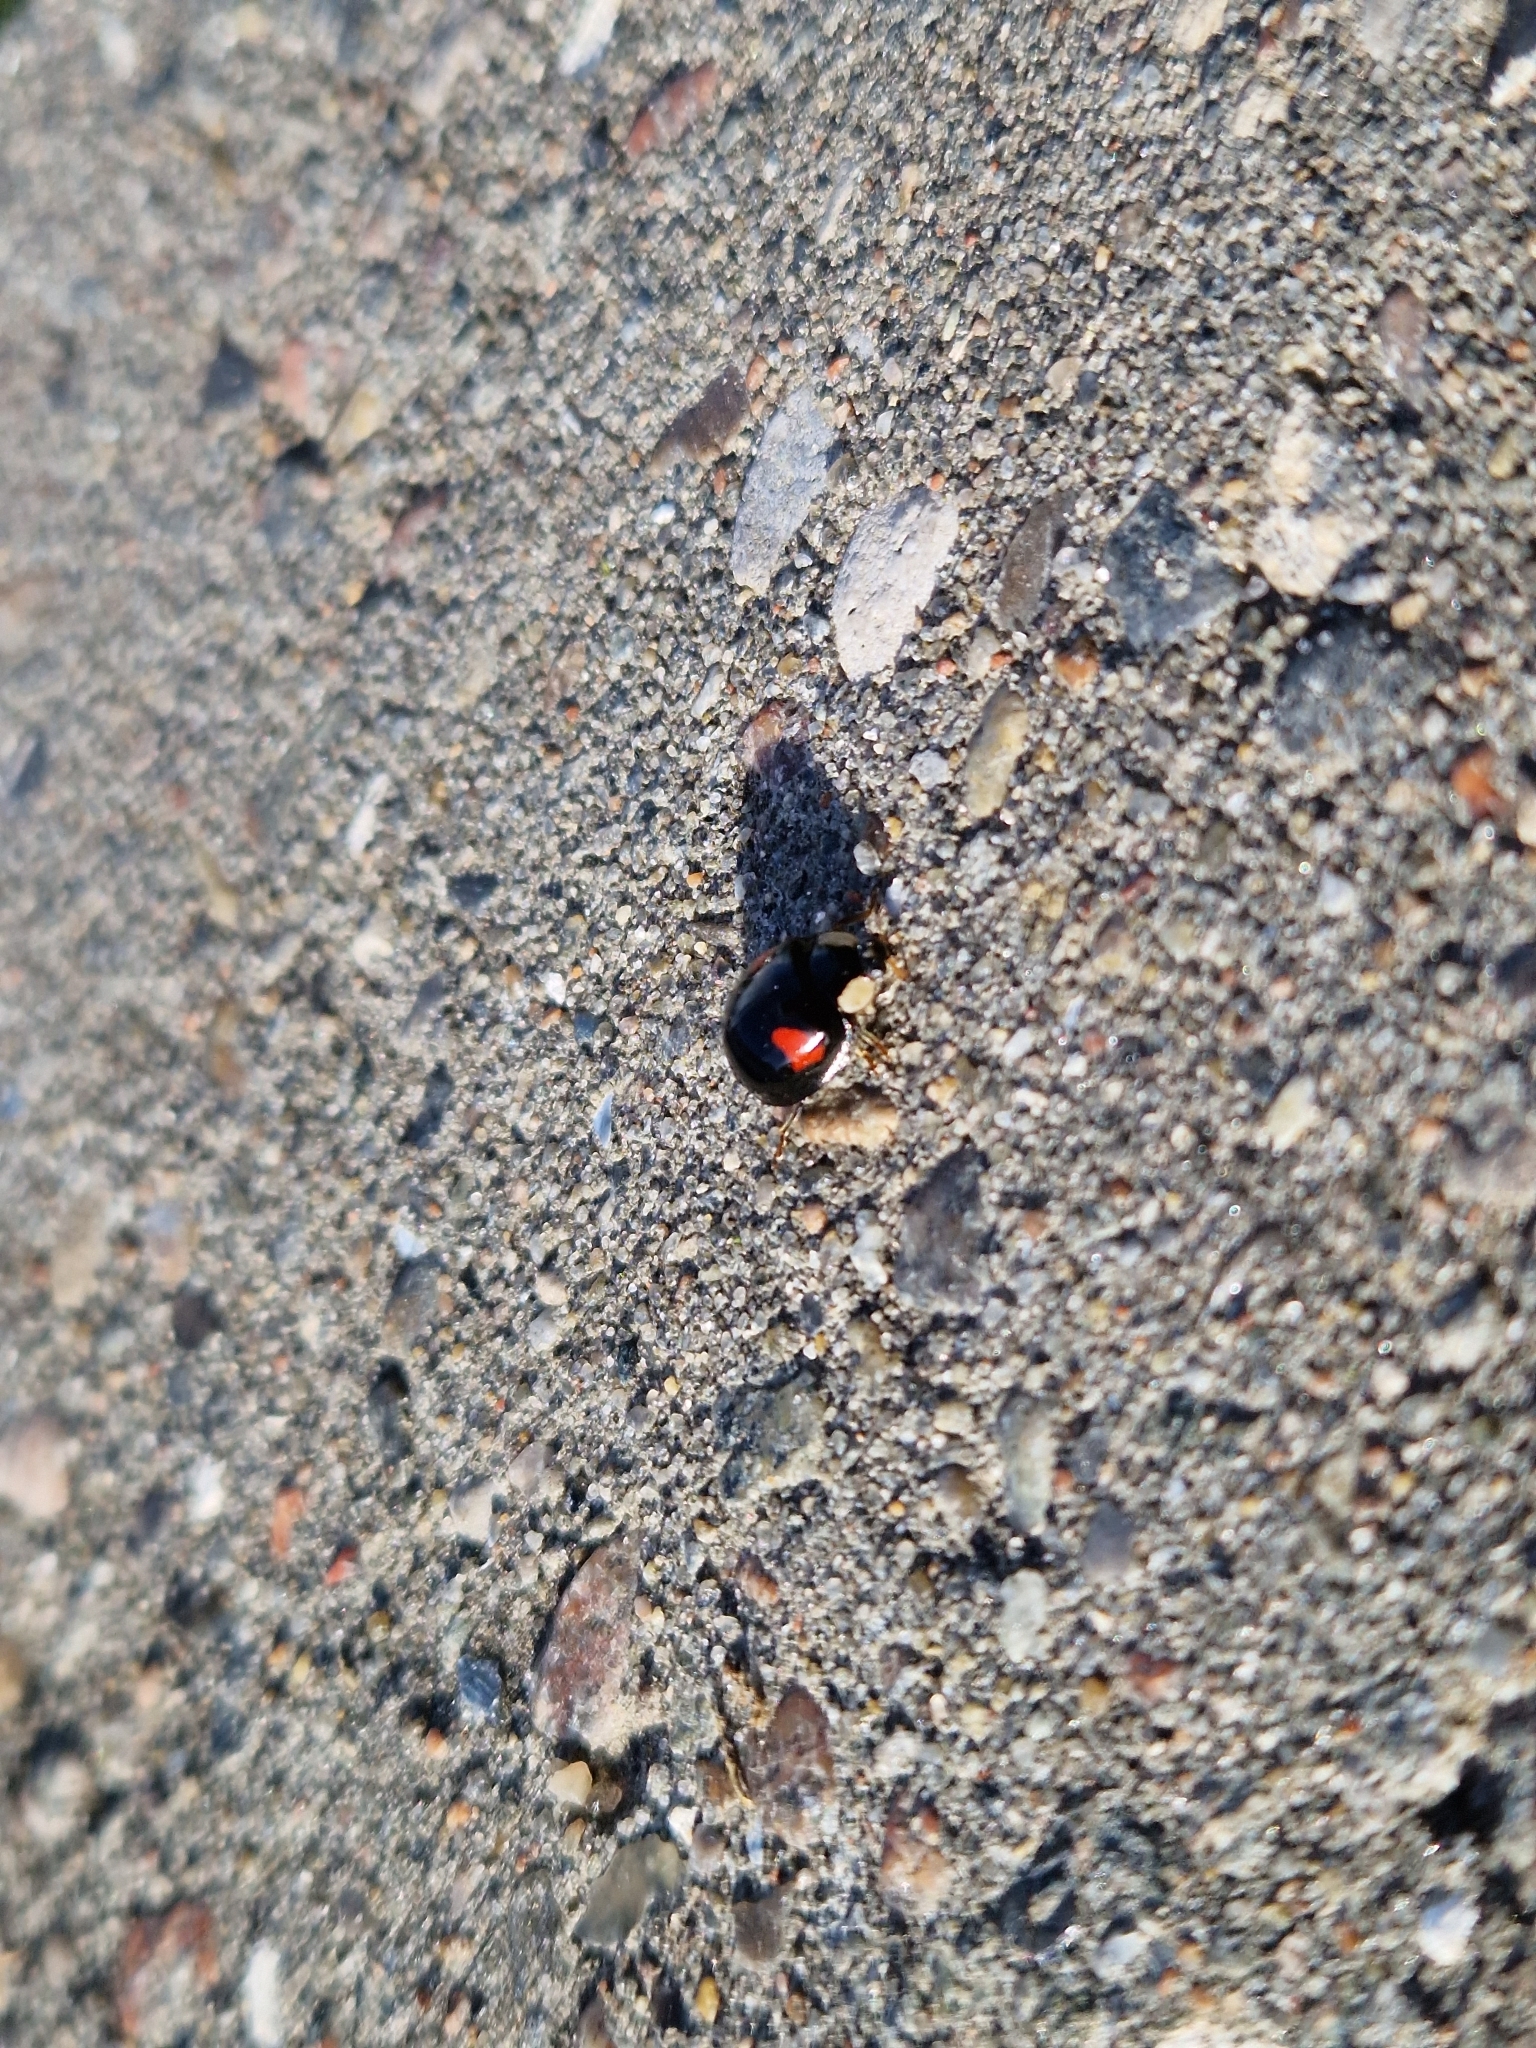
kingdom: Animalia
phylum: Arthropoda
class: Insecta
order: Coleoptera
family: Coccinellidae
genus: Harmonia
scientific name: Harmonia axyridis
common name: Harlequin ladybird
